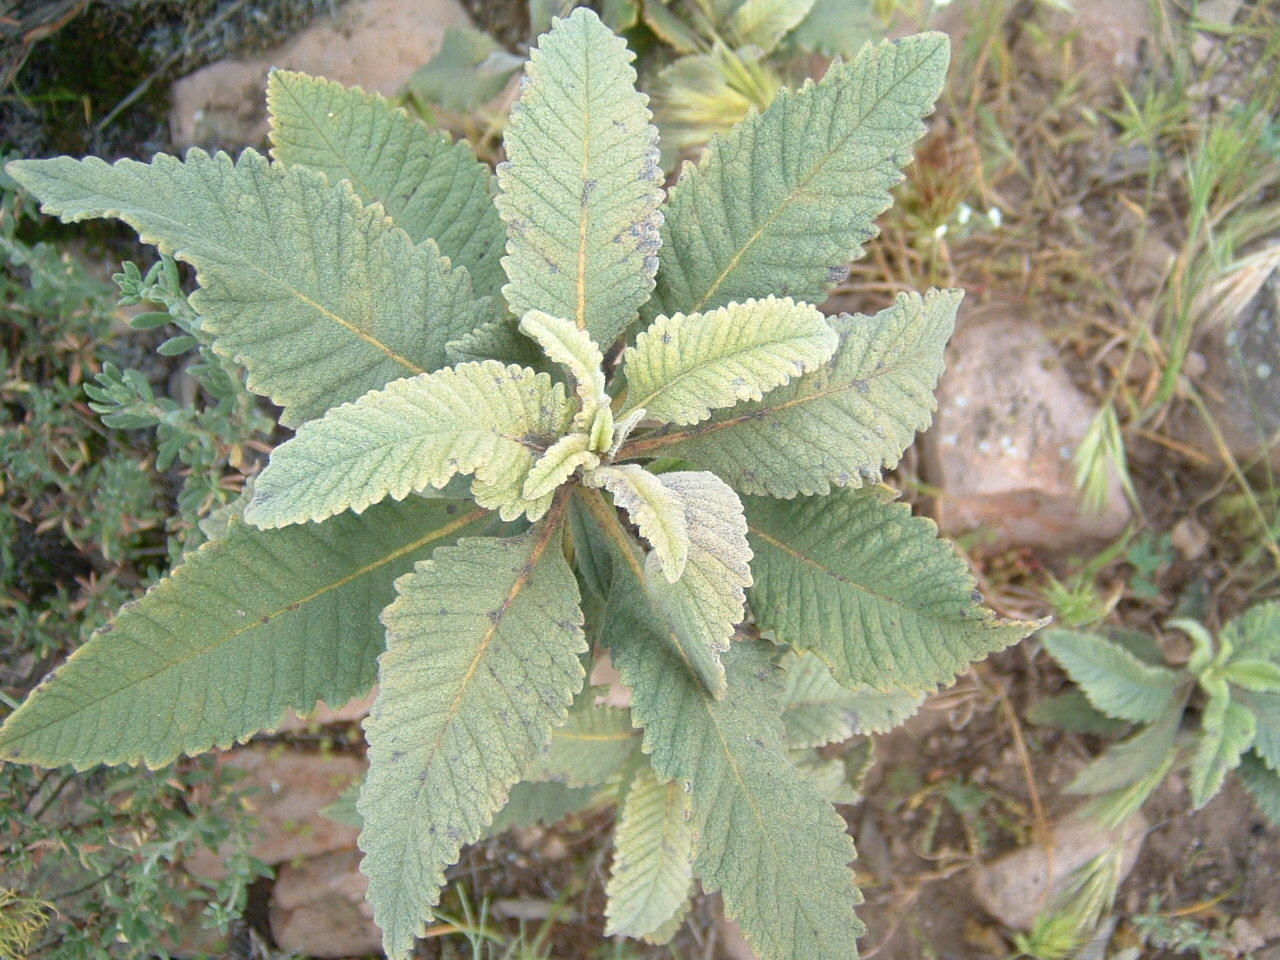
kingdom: Plantae
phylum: Tracheophyta
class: Magnoliopsida
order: Boraginales
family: Namaceae
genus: Eriodictyon
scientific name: Eriodictyon crassifolium
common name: Thick-leaf yerba-santa
